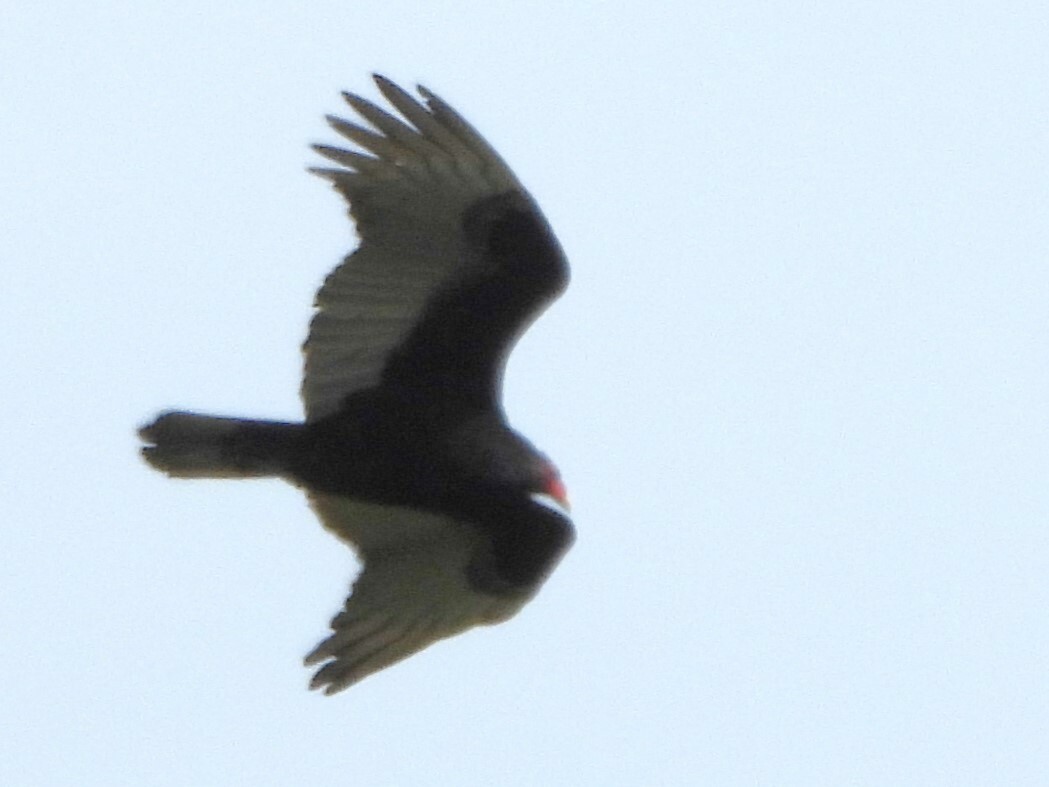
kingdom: Animalia
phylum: Chordata
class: Aves
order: Accipitriformes
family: Cathartidae
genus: Cathartes
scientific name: Cathartes aura
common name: Turkey vulture
